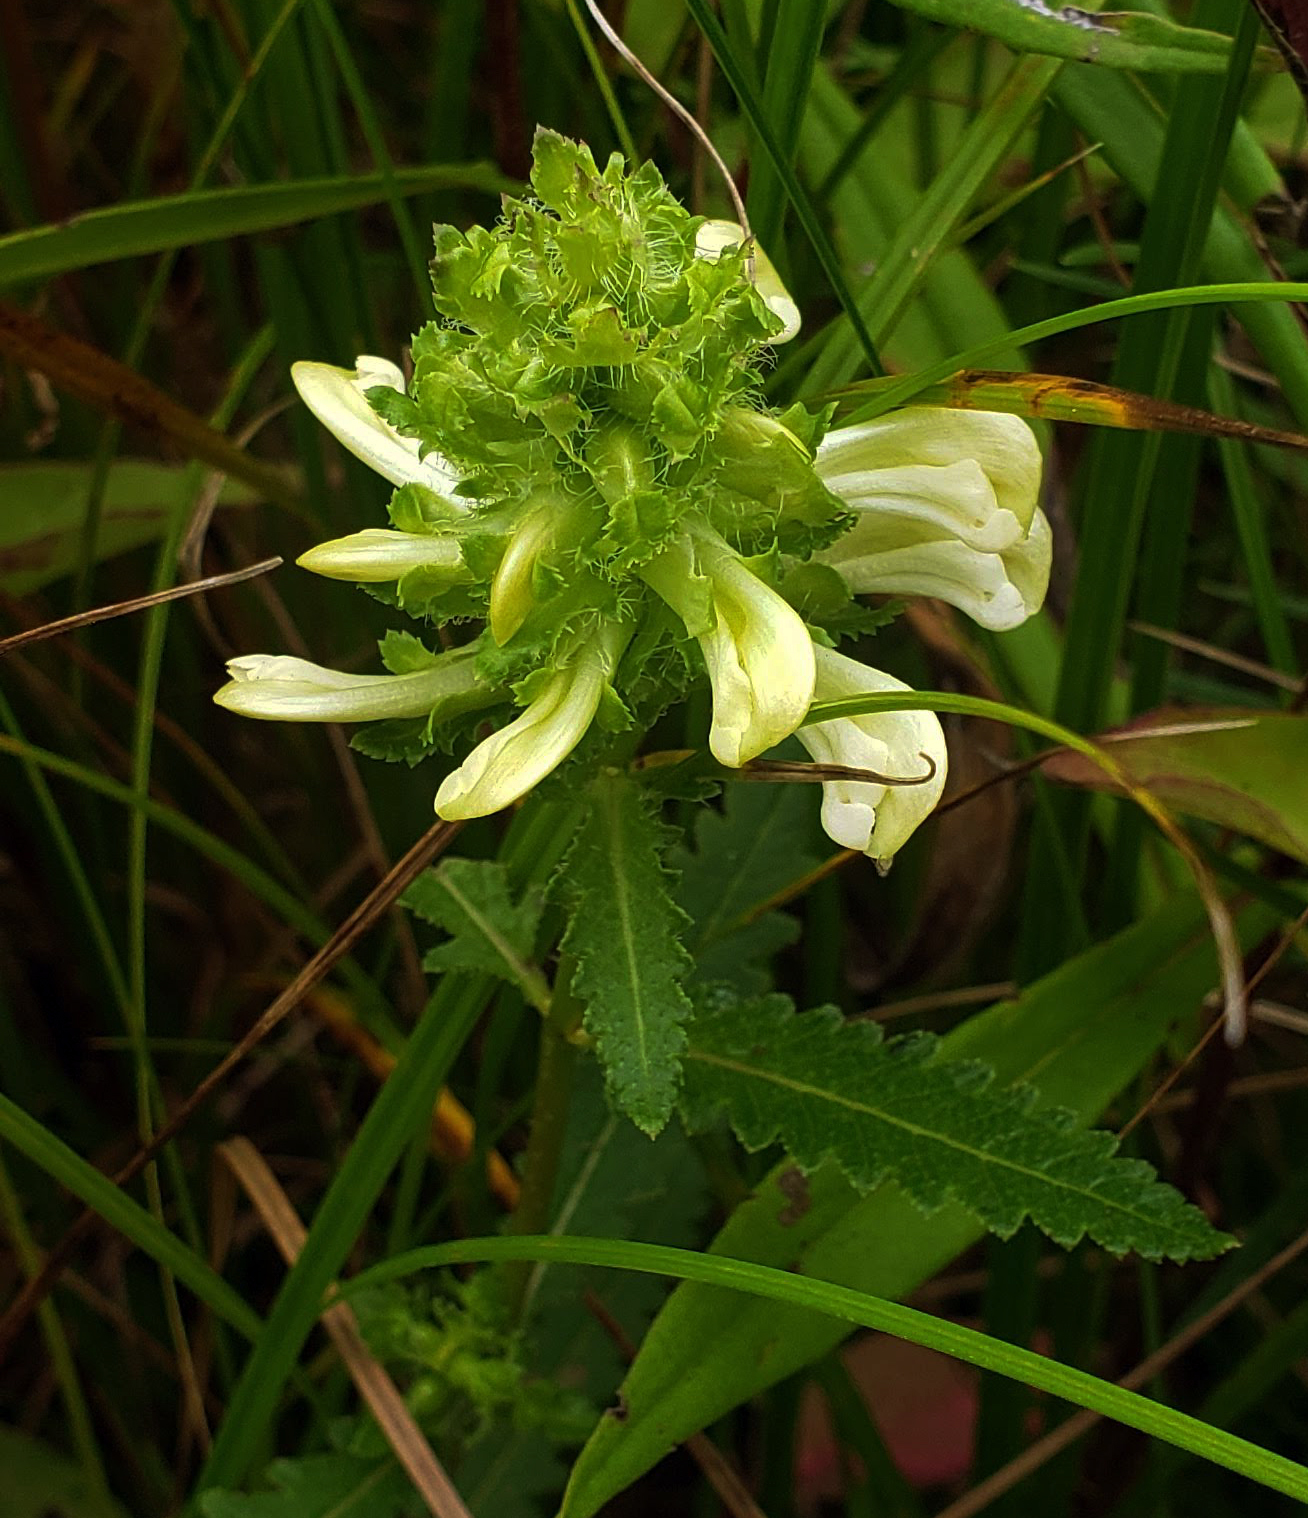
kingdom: Plantae
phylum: Tracheophyta
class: Magnoliopsida
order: Lamiales
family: Orobanchaceae
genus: Pedicularis
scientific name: Pedicularis lanceolata
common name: Swamp lousewort
